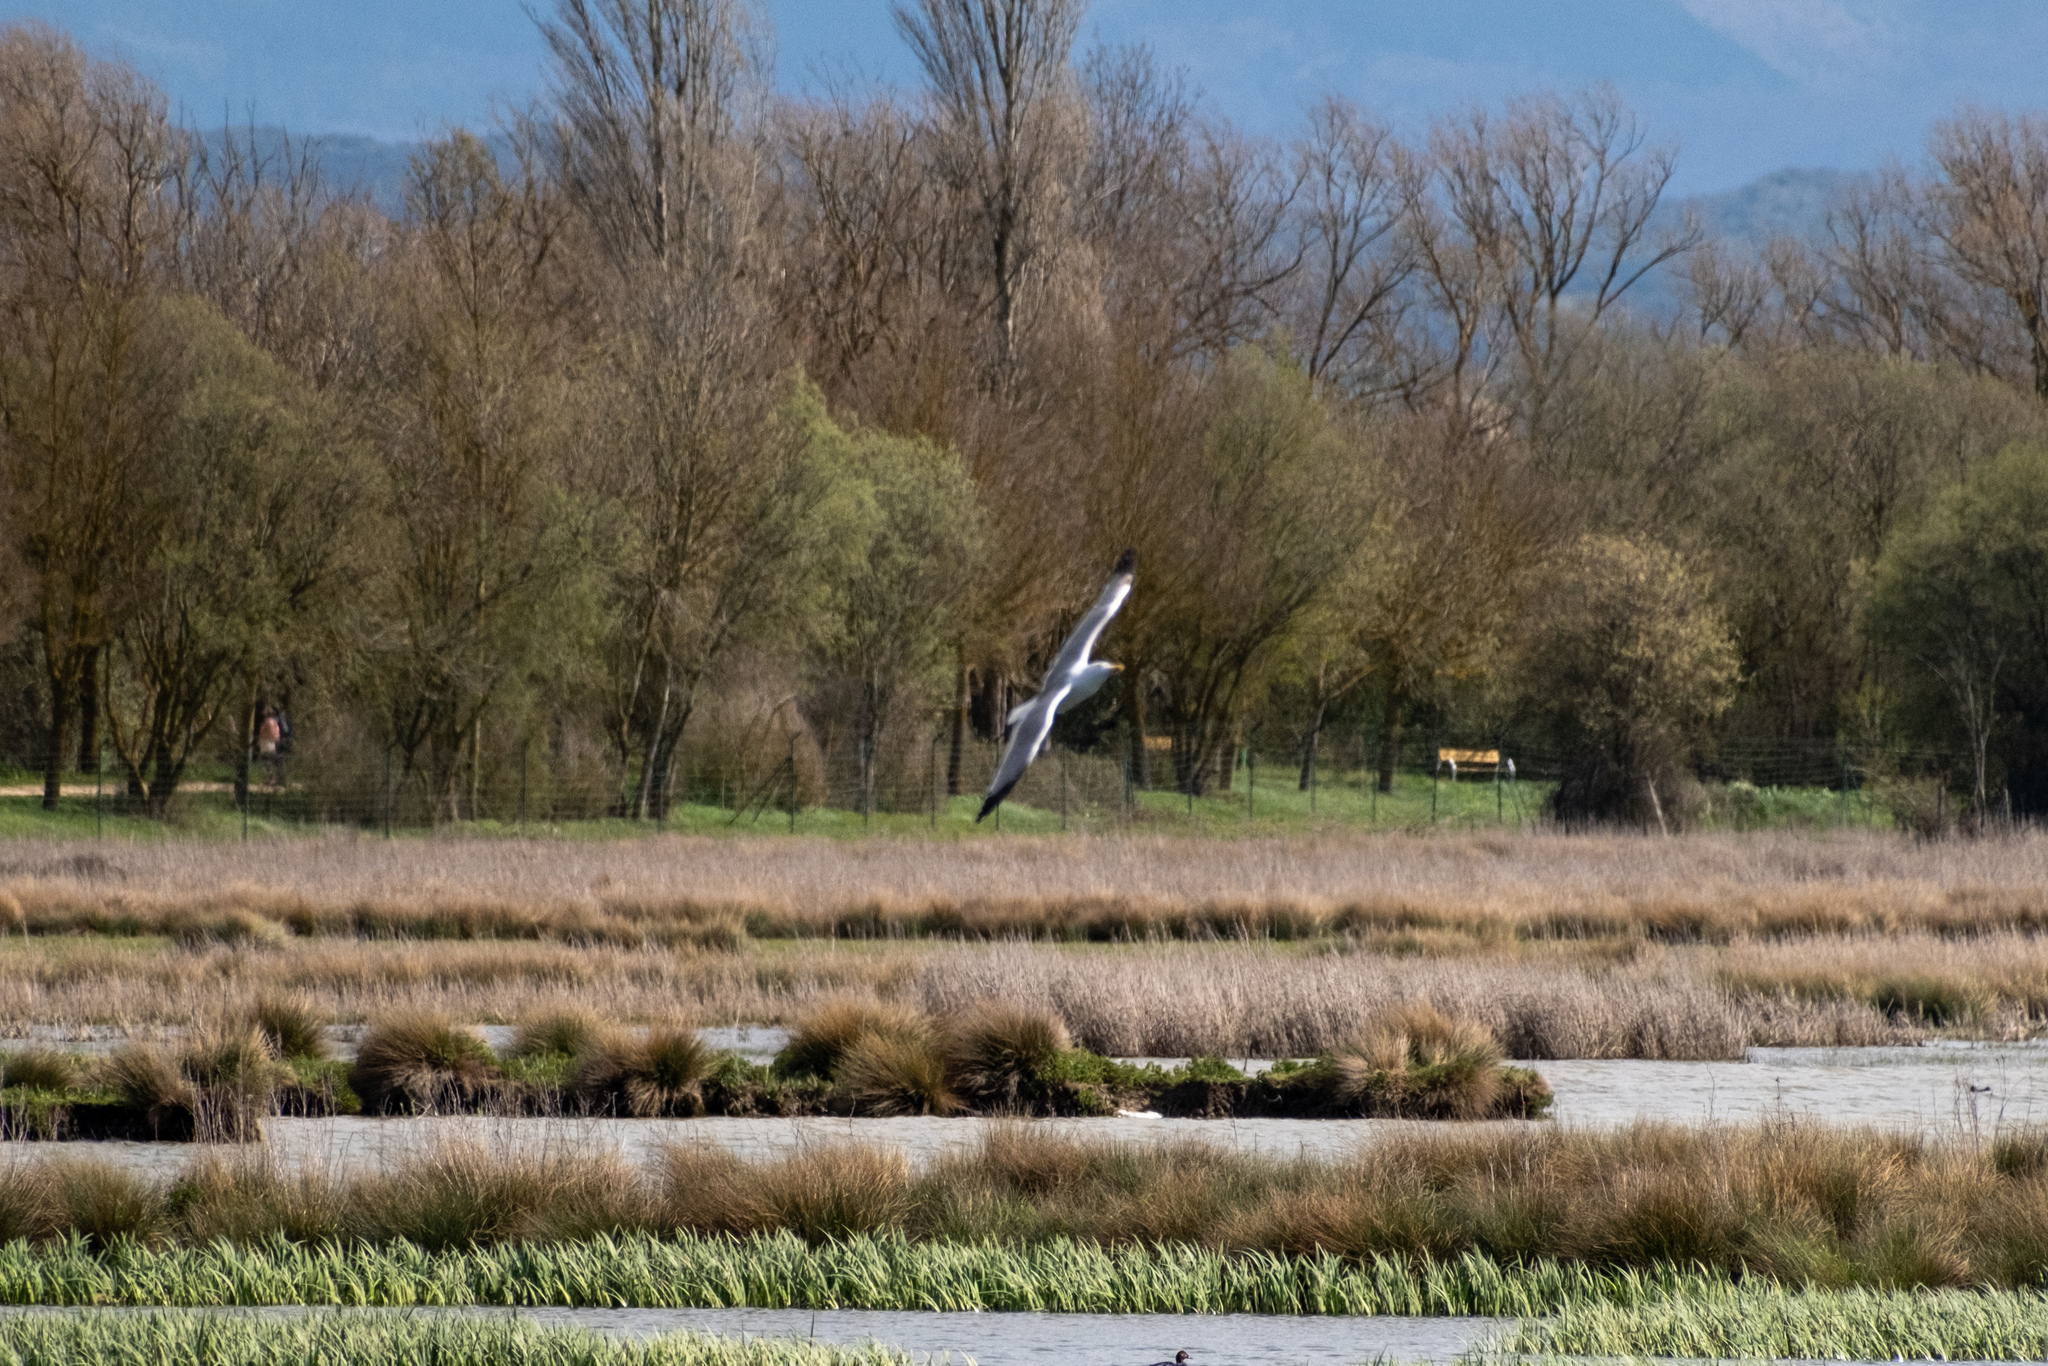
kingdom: Animalia
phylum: Chordata
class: Aves
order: Charadriiformes
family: Laridae
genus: Larus
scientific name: Larus fuscus
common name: Lesser black-backed gull
